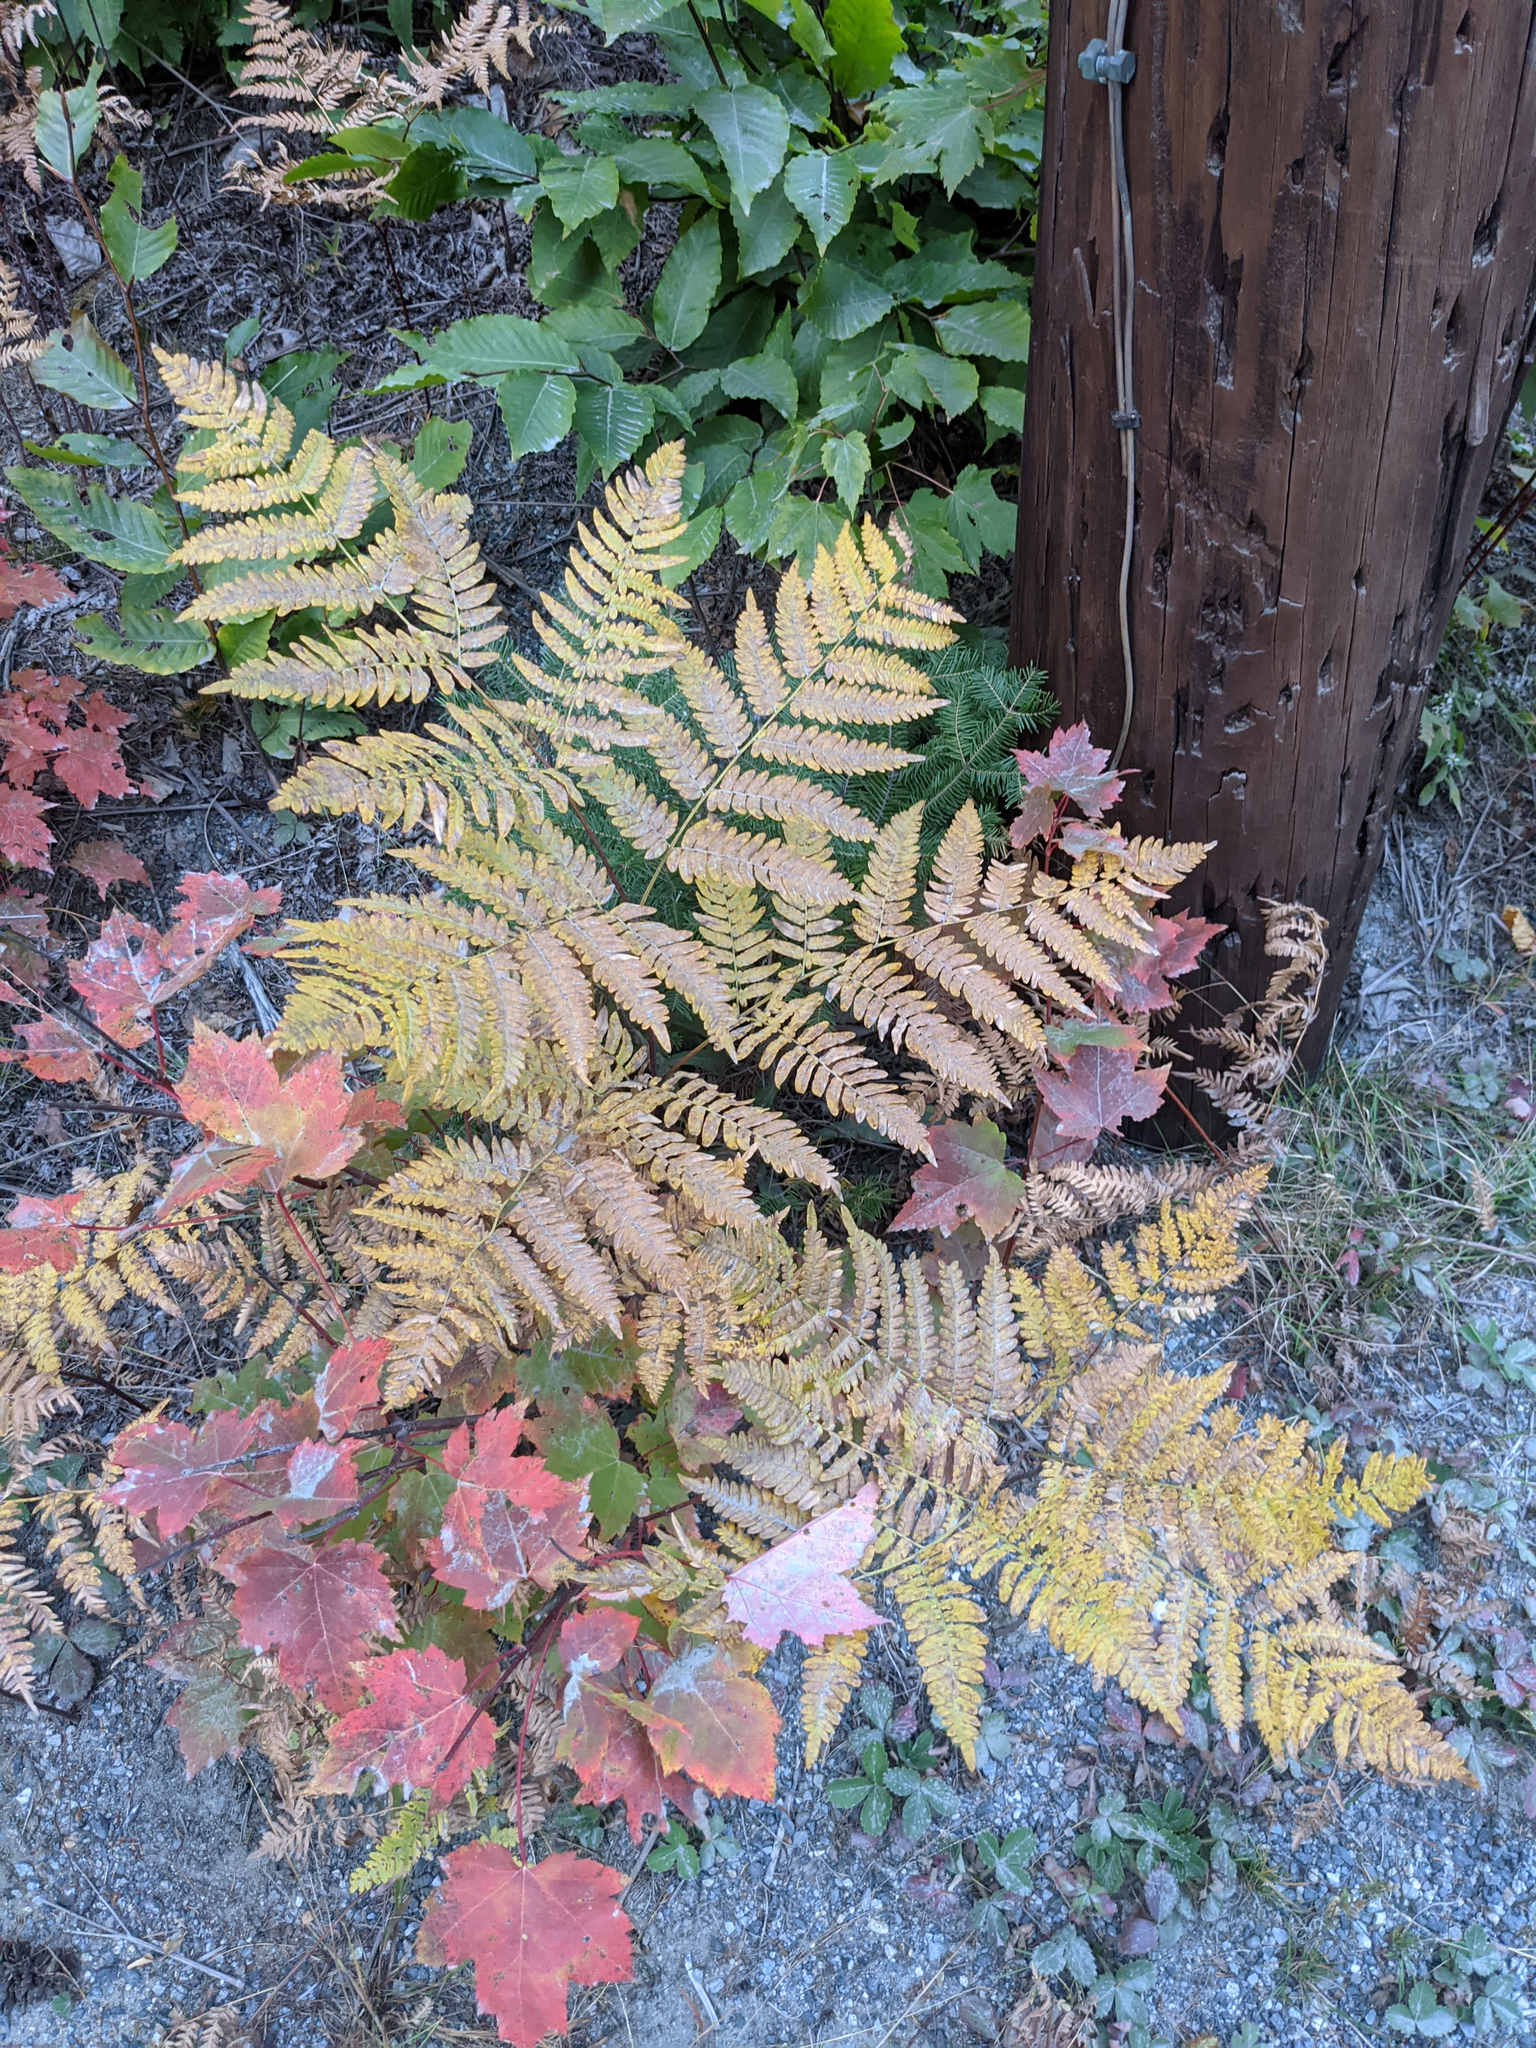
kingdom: Plantae
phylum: Tracheophyta
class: Polypodiopsida
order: Polypodiales
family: Dennstaedtiaceae
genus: Pteridium
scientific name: Pteridium aquilinum
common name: Bracken
